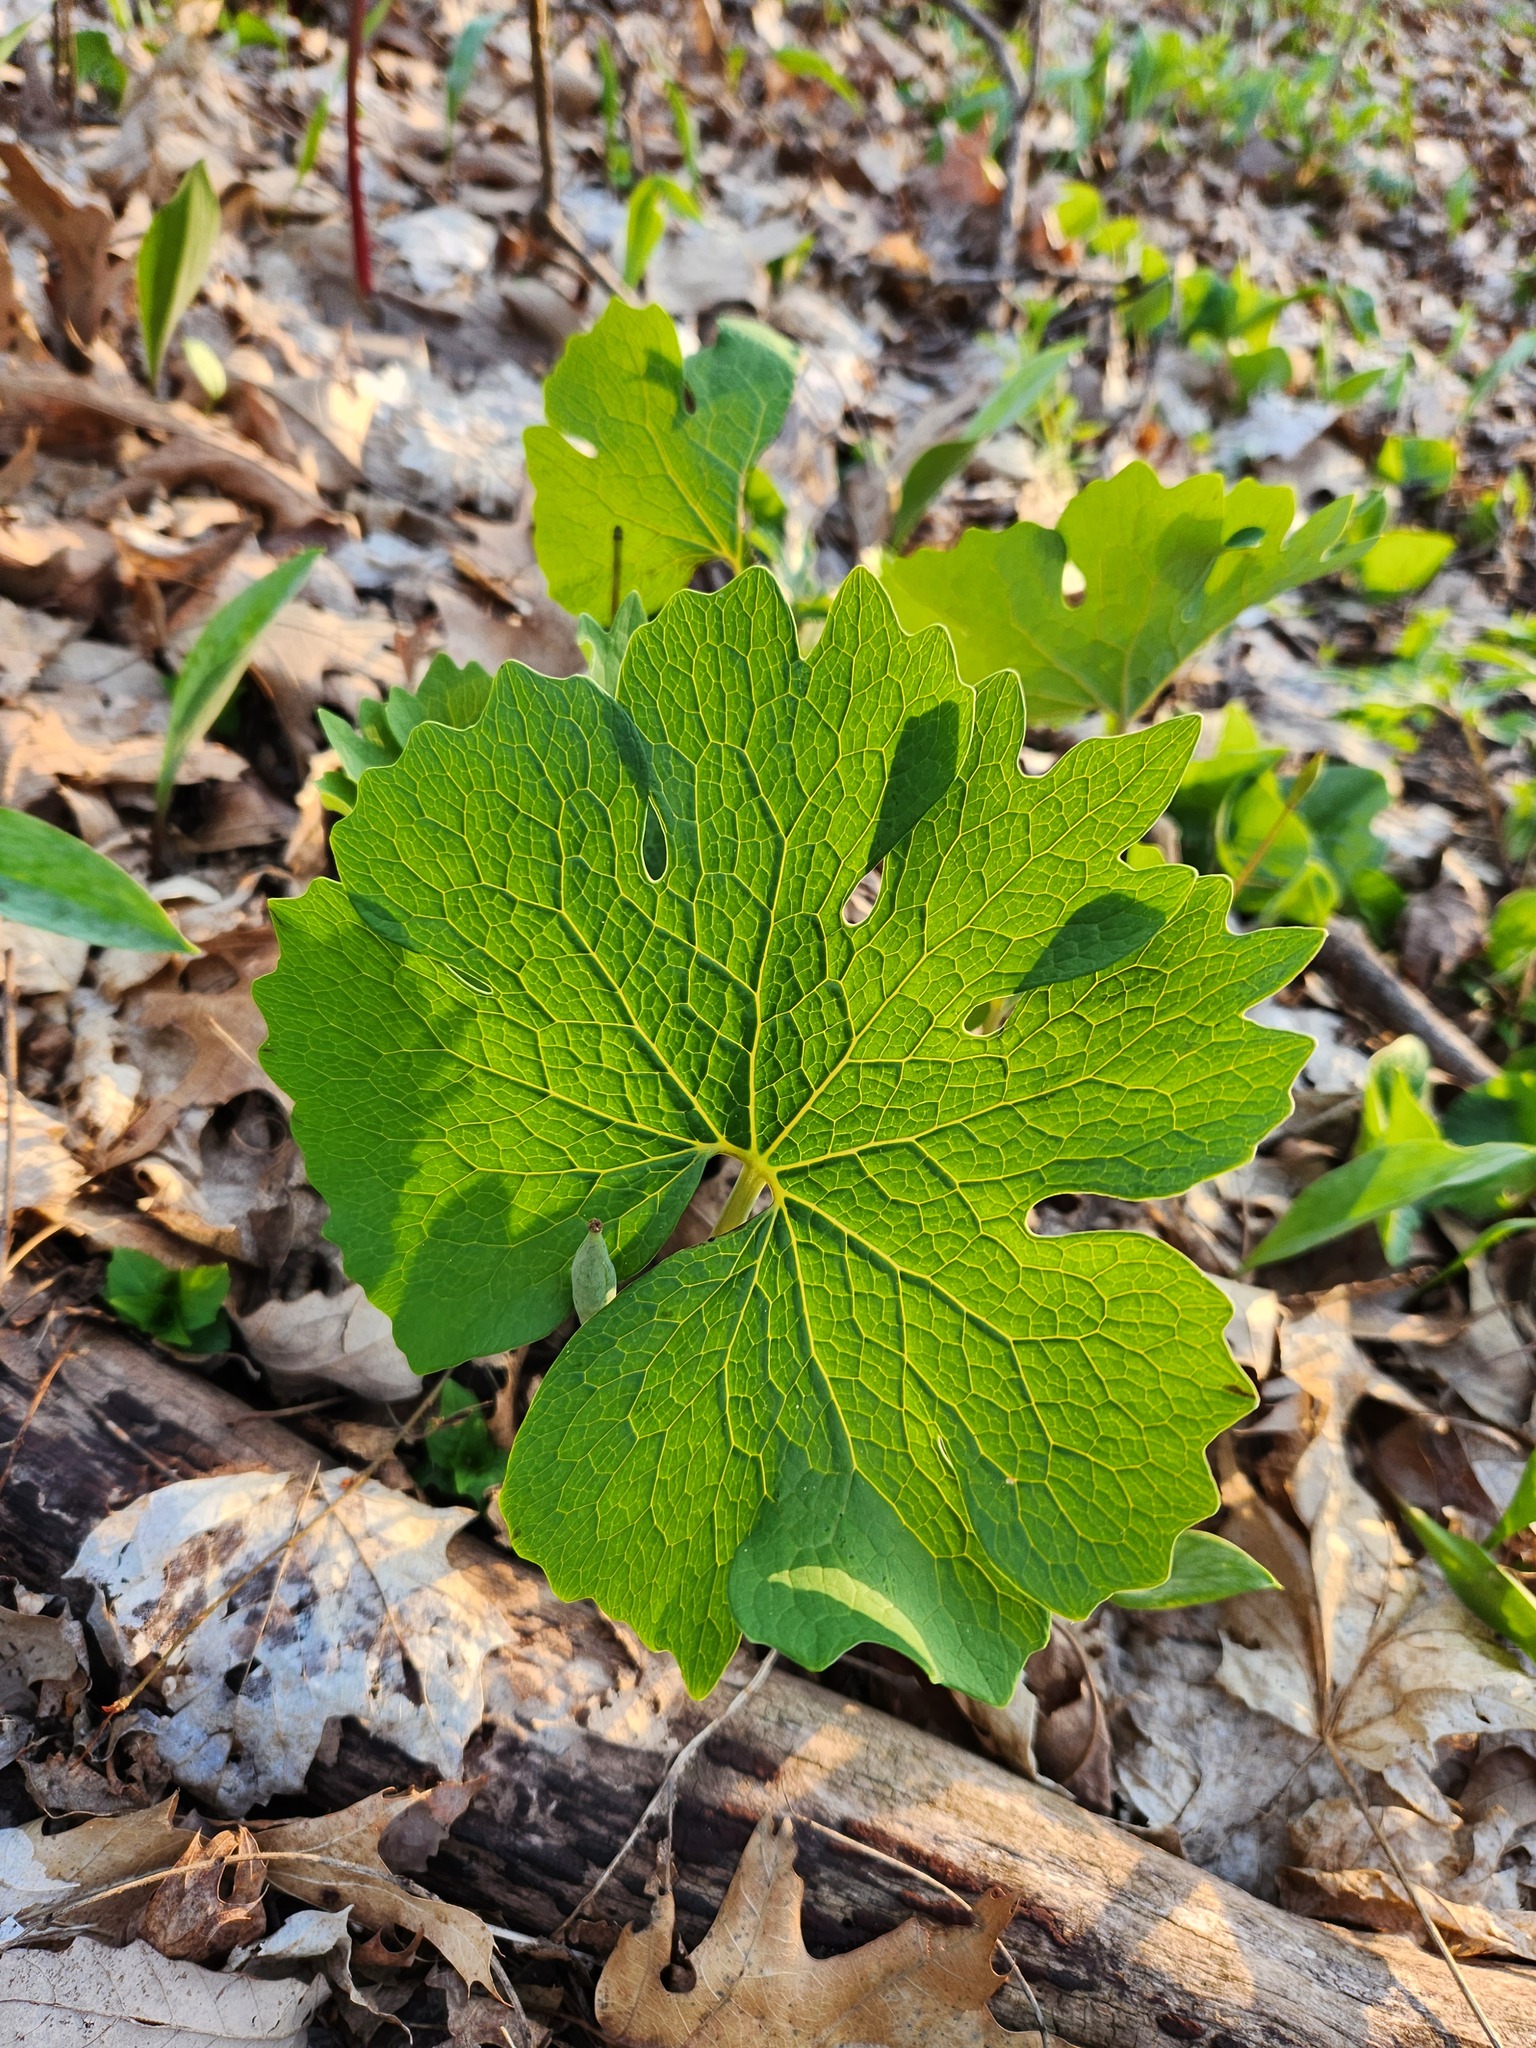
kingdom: Plantae
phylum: Tracheophyta
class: Magnoliopsida
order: Ranunculales
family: Papaveraceae
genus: Sanguinaria
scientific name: Sanguinaria canadensis
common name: Bloodroot
